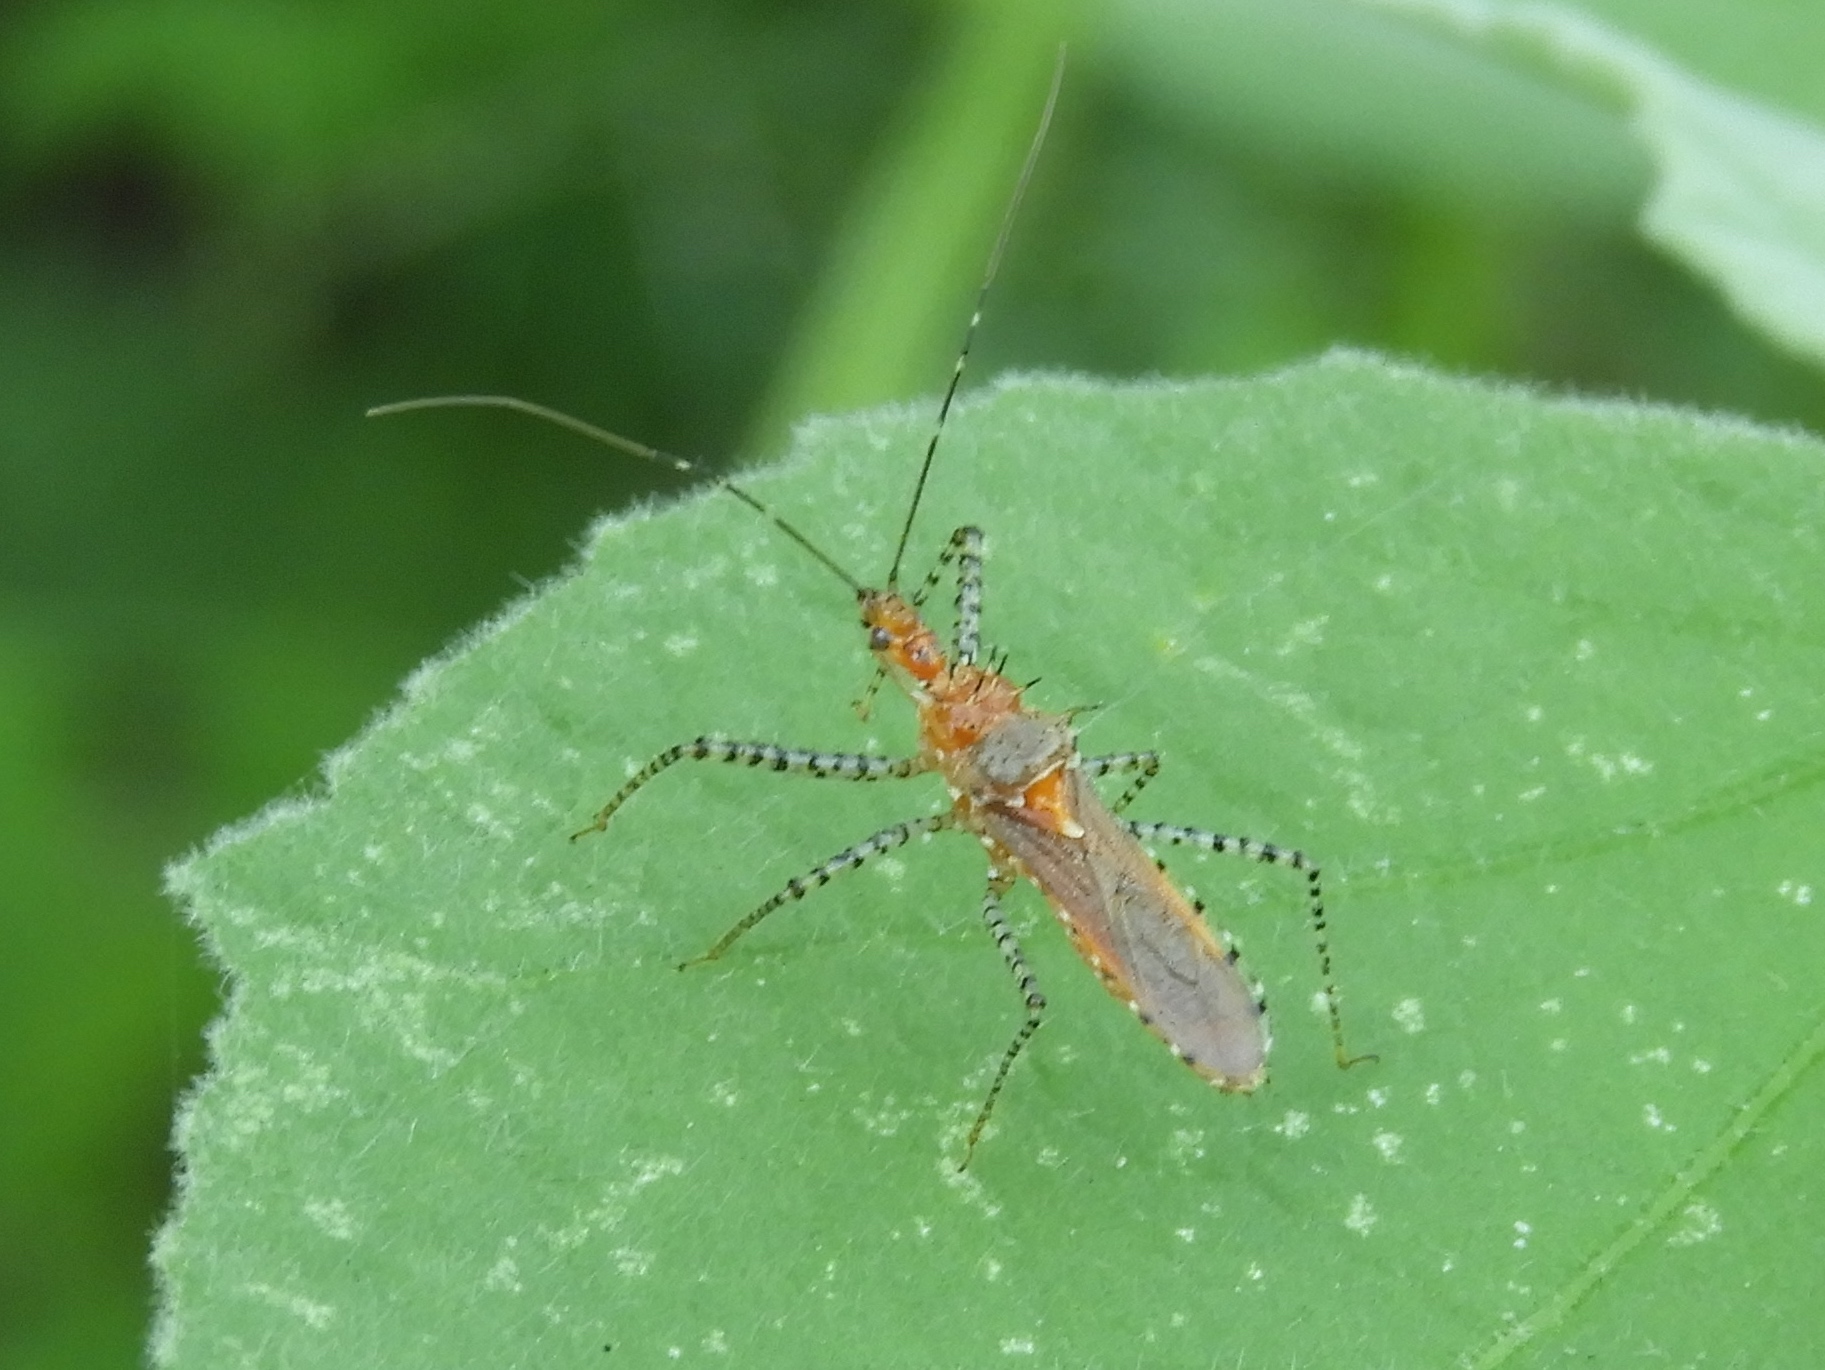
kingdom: Animalia
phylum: Arthropoda
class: Insecta
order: Hemiptera
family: Reduviidae
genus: Pselliopus
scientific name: Pselliopus
